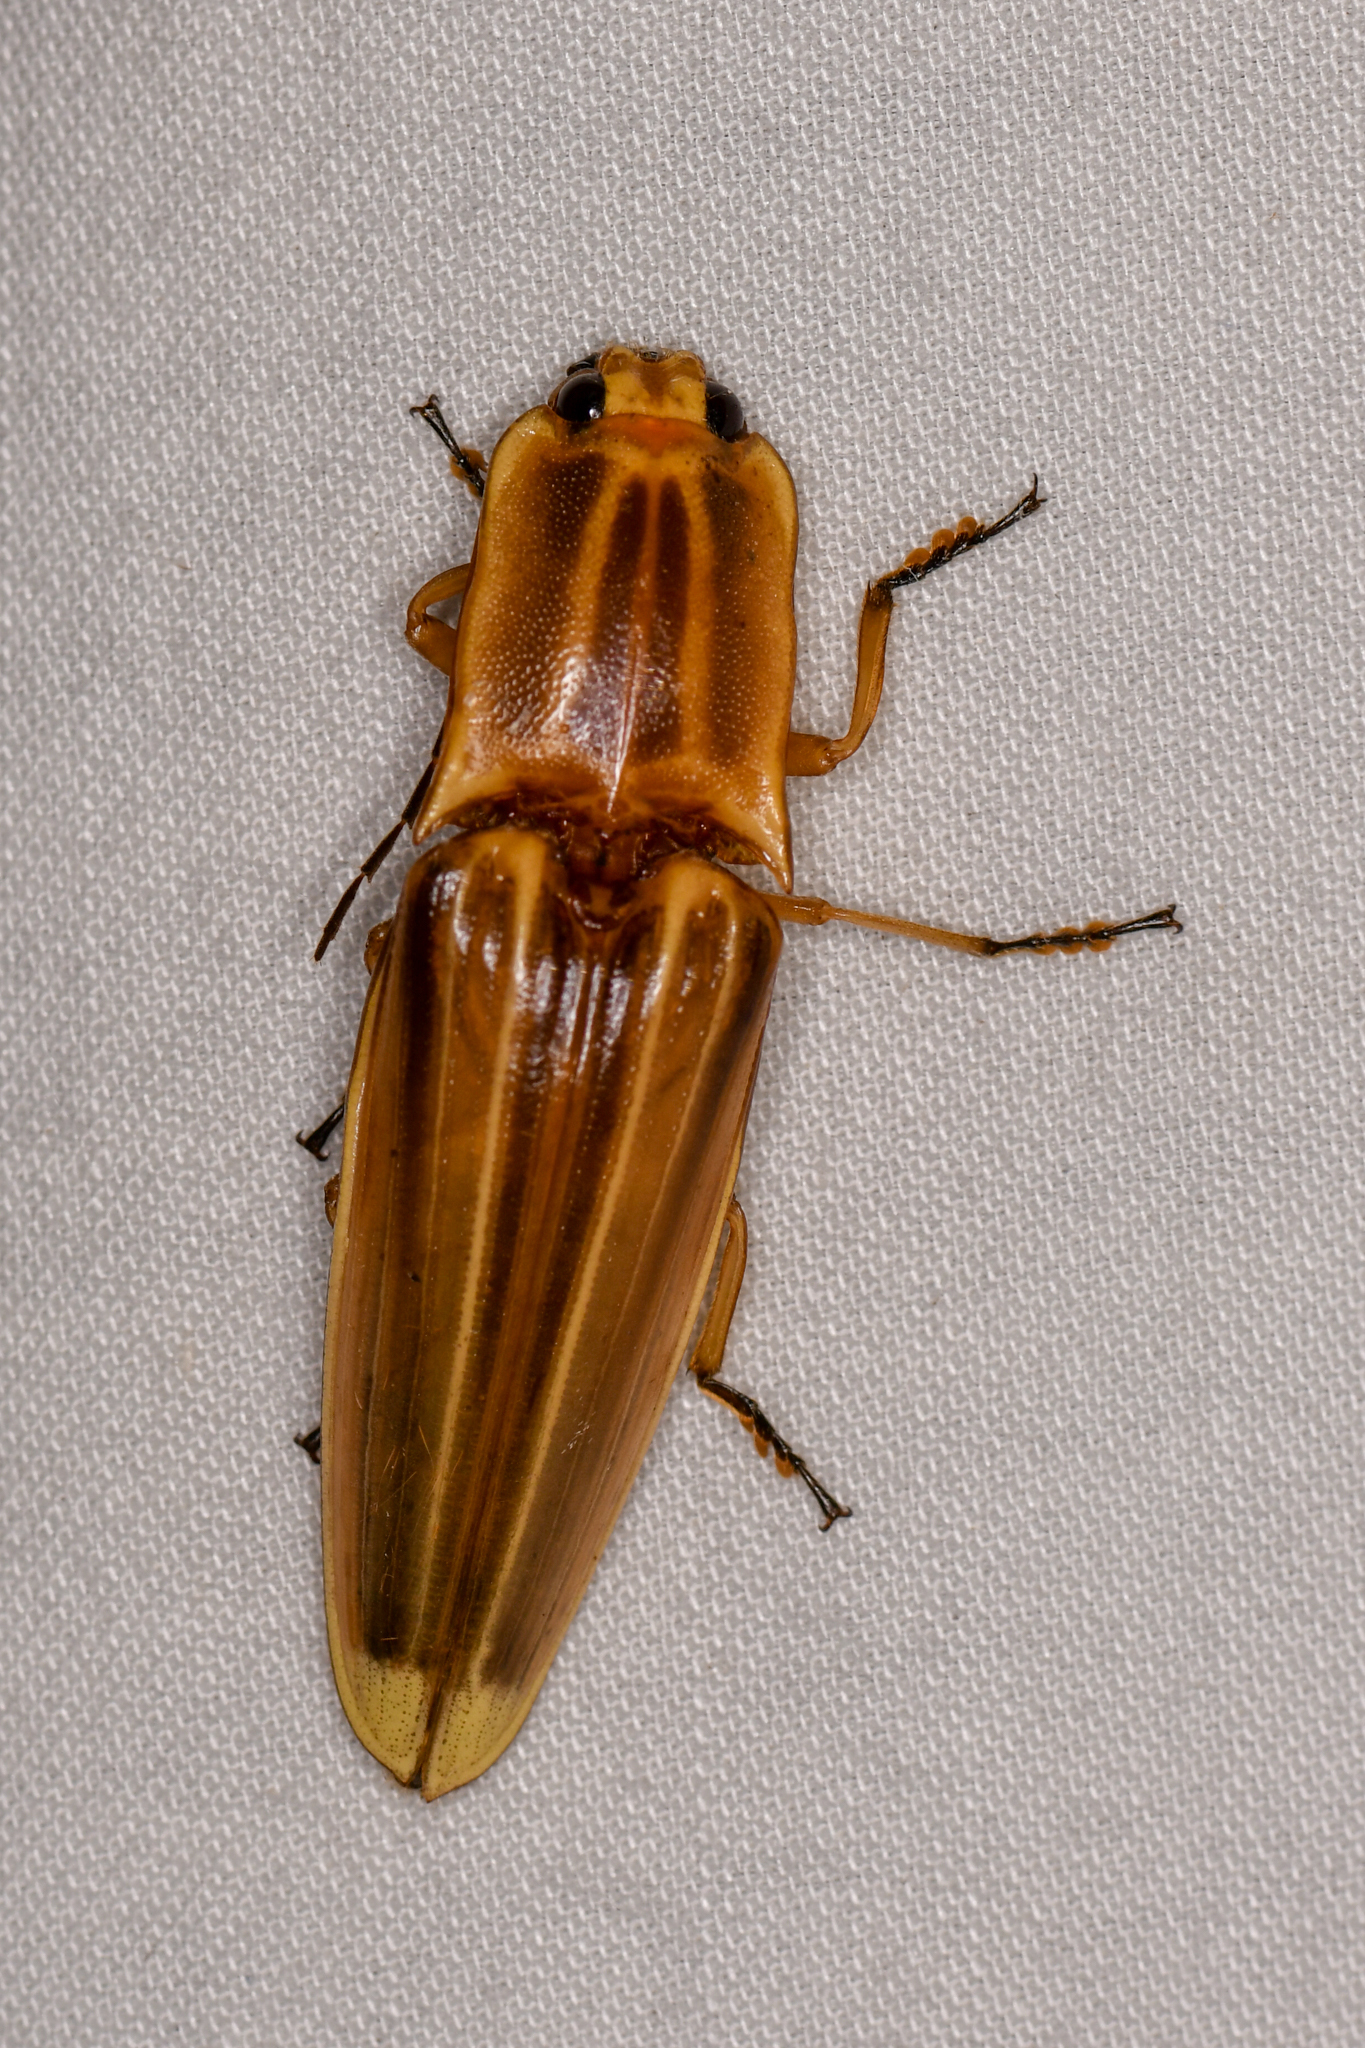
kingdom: Animalia
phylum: Arthropoda
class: Insecta
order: Coleoptera
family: Elateridae
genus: Semiotus
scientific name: Semiotus ligneus
